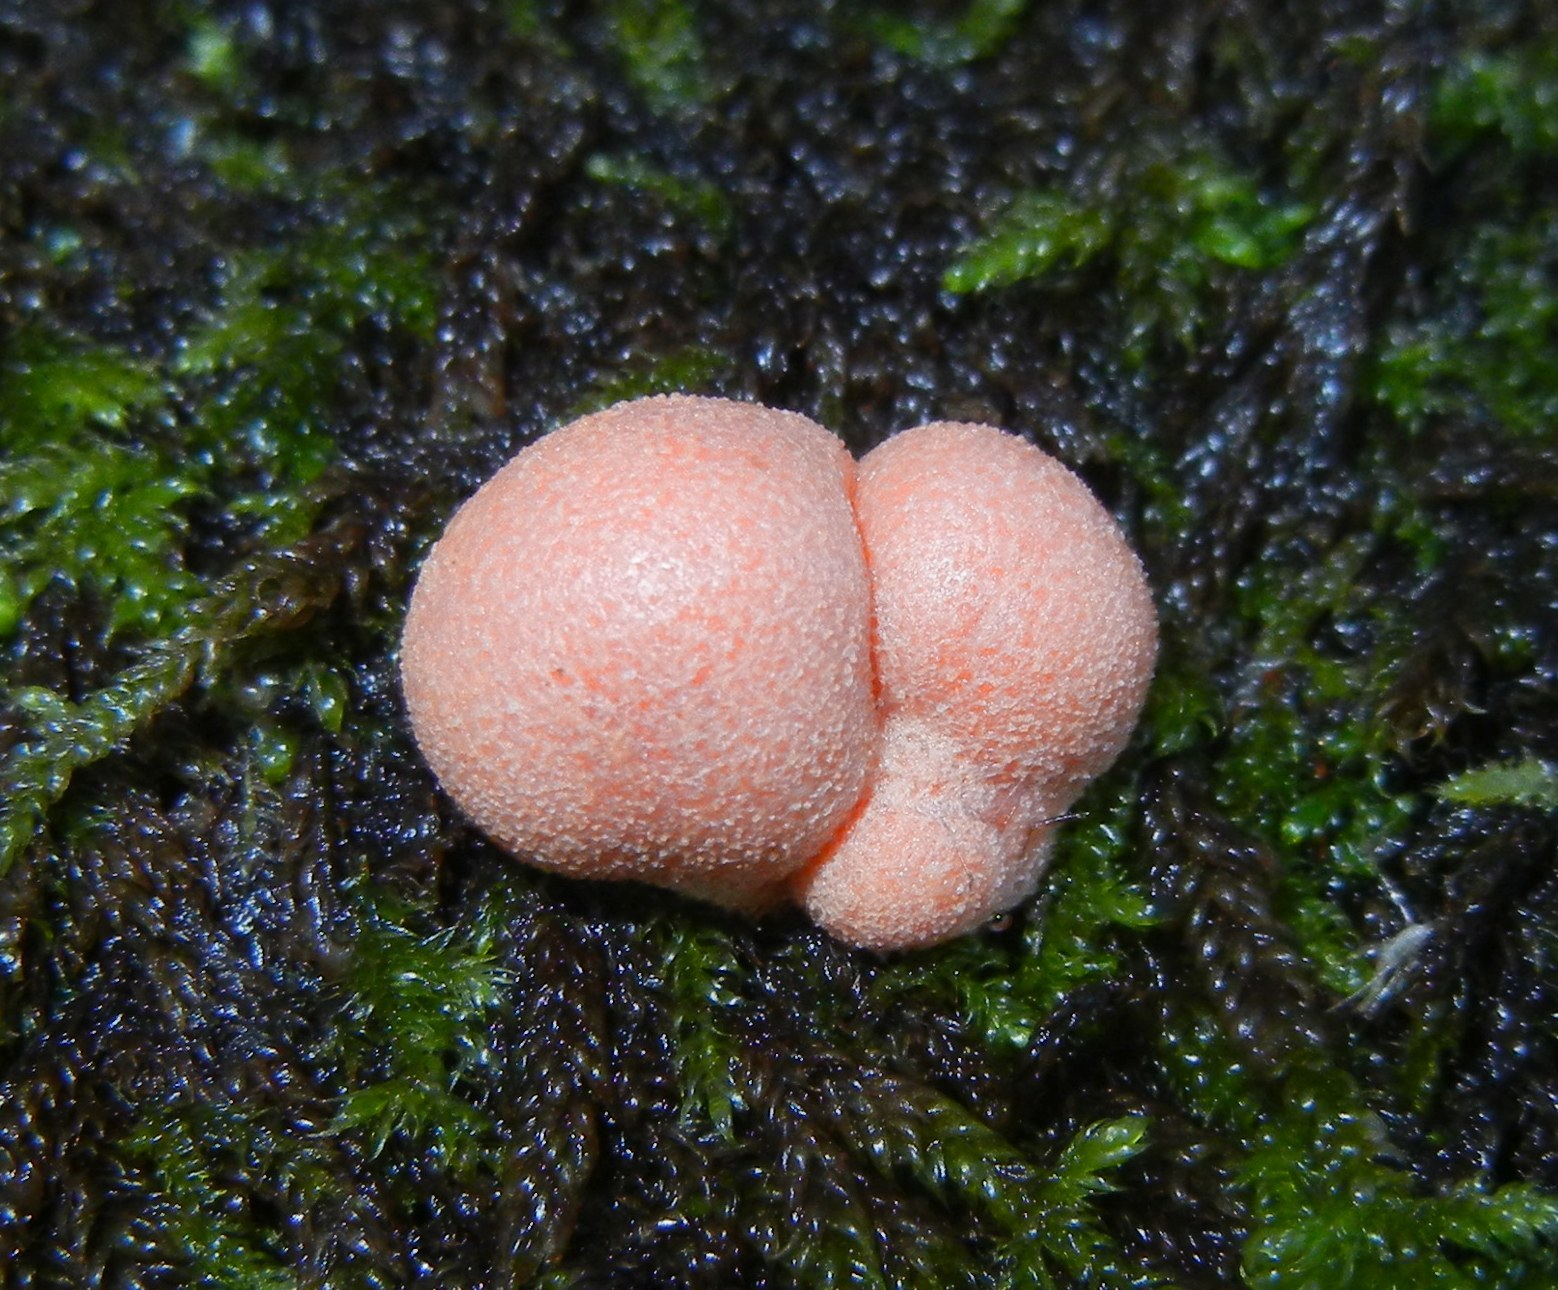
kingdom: Protozoa
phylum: Mycetozoa
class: Myxomycetes
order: Cribrariales
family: Tubiferaceae
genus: Lycogala
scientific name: Lycogala epidendrum
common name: Wolf's milk
